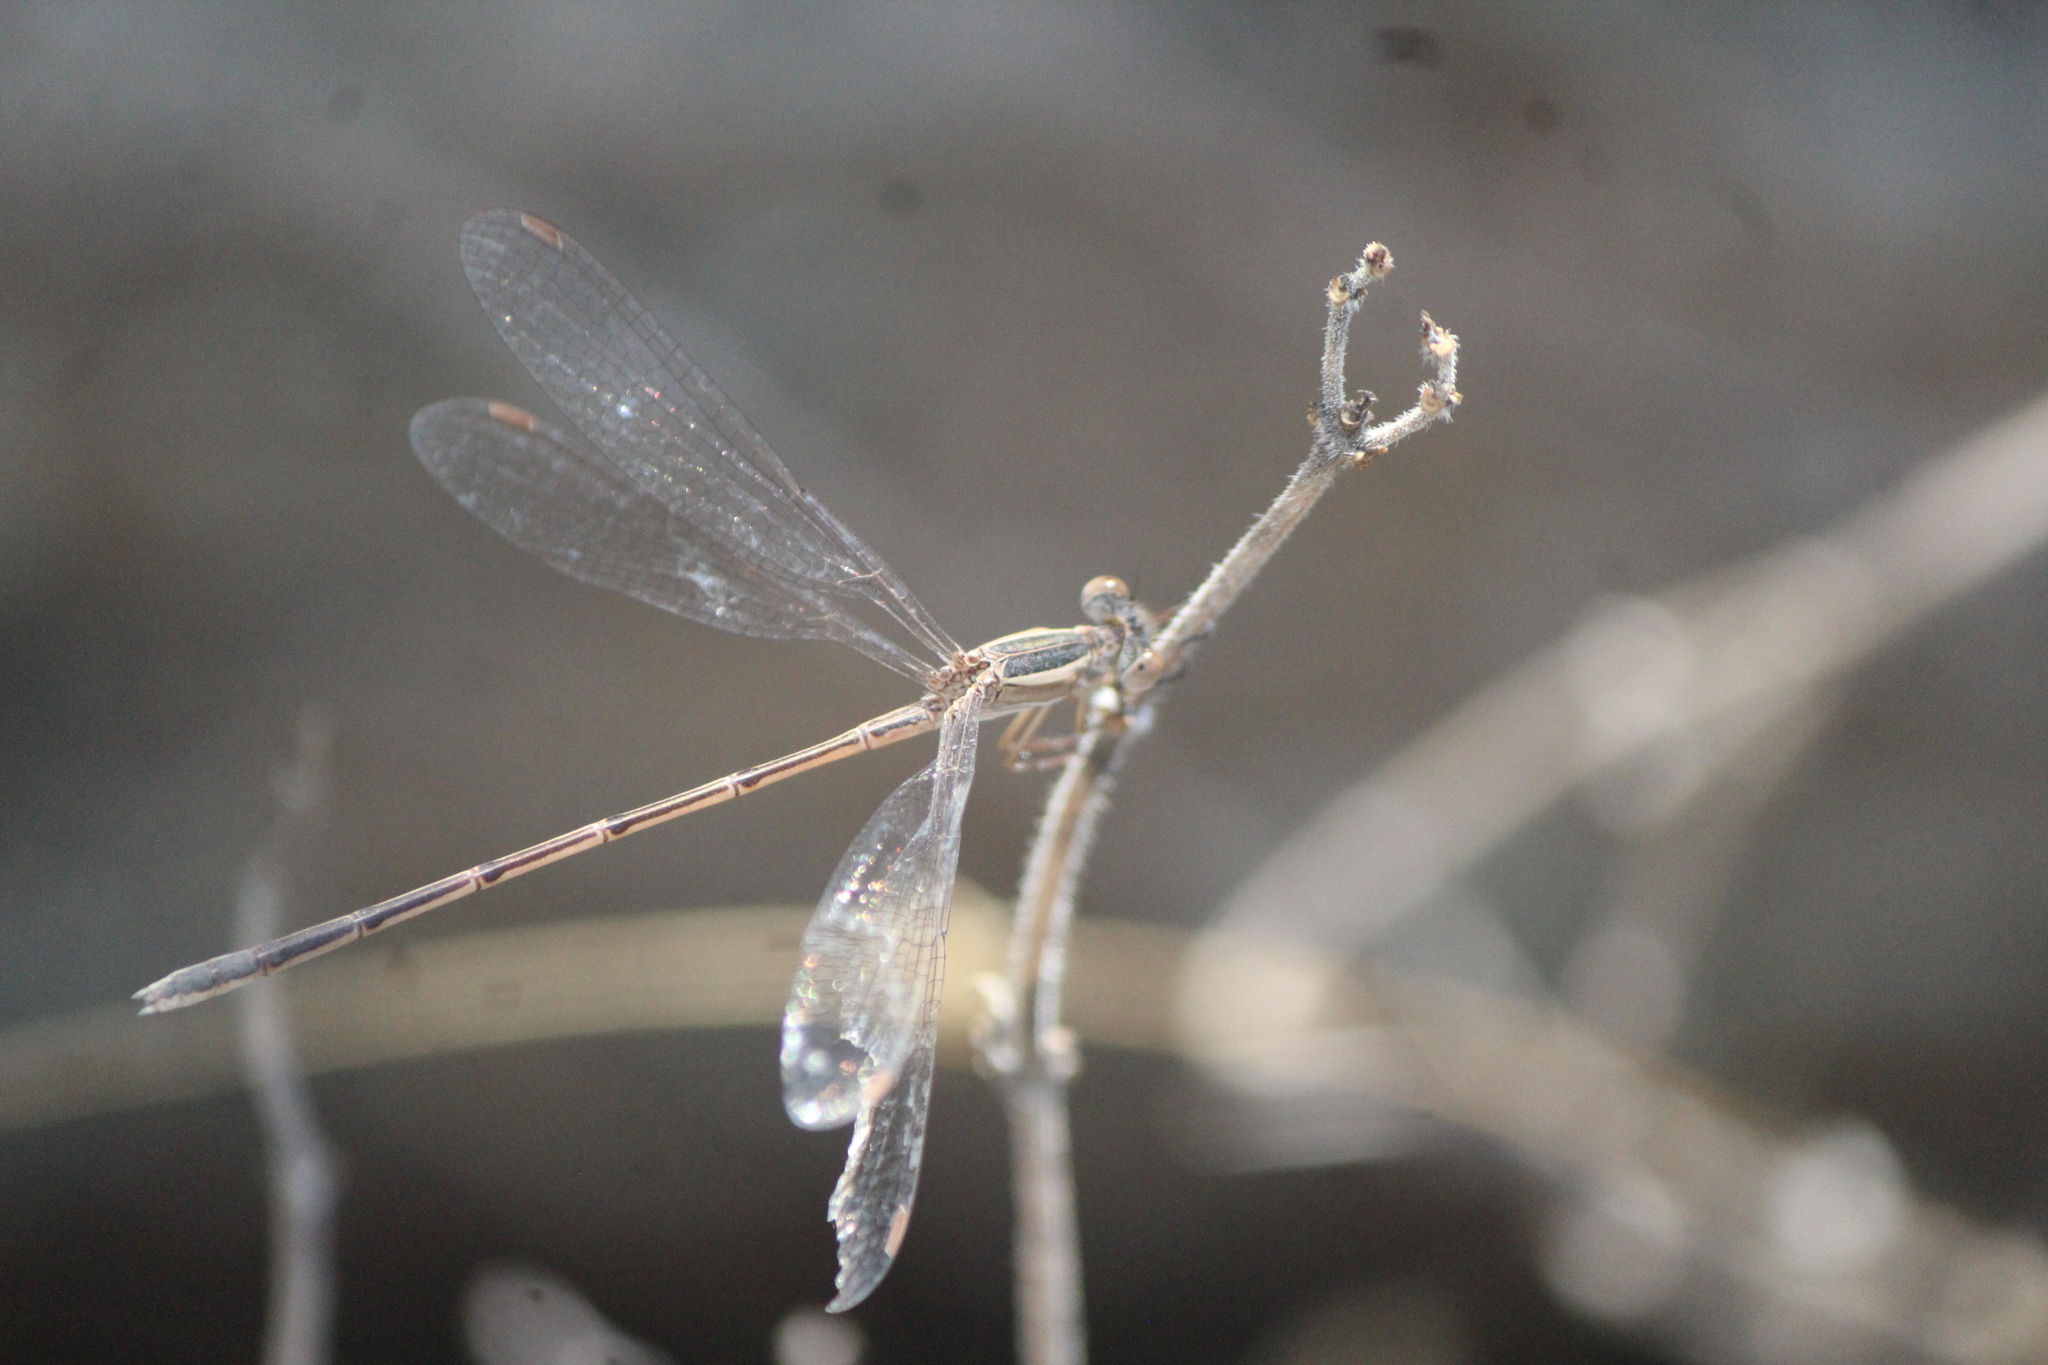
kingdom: Animalia
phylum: Arthropoda
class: Insecta
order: Odonata
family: Lestidae
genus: Lestes
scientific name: Lestes alacer
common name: Plateau spreadwing
